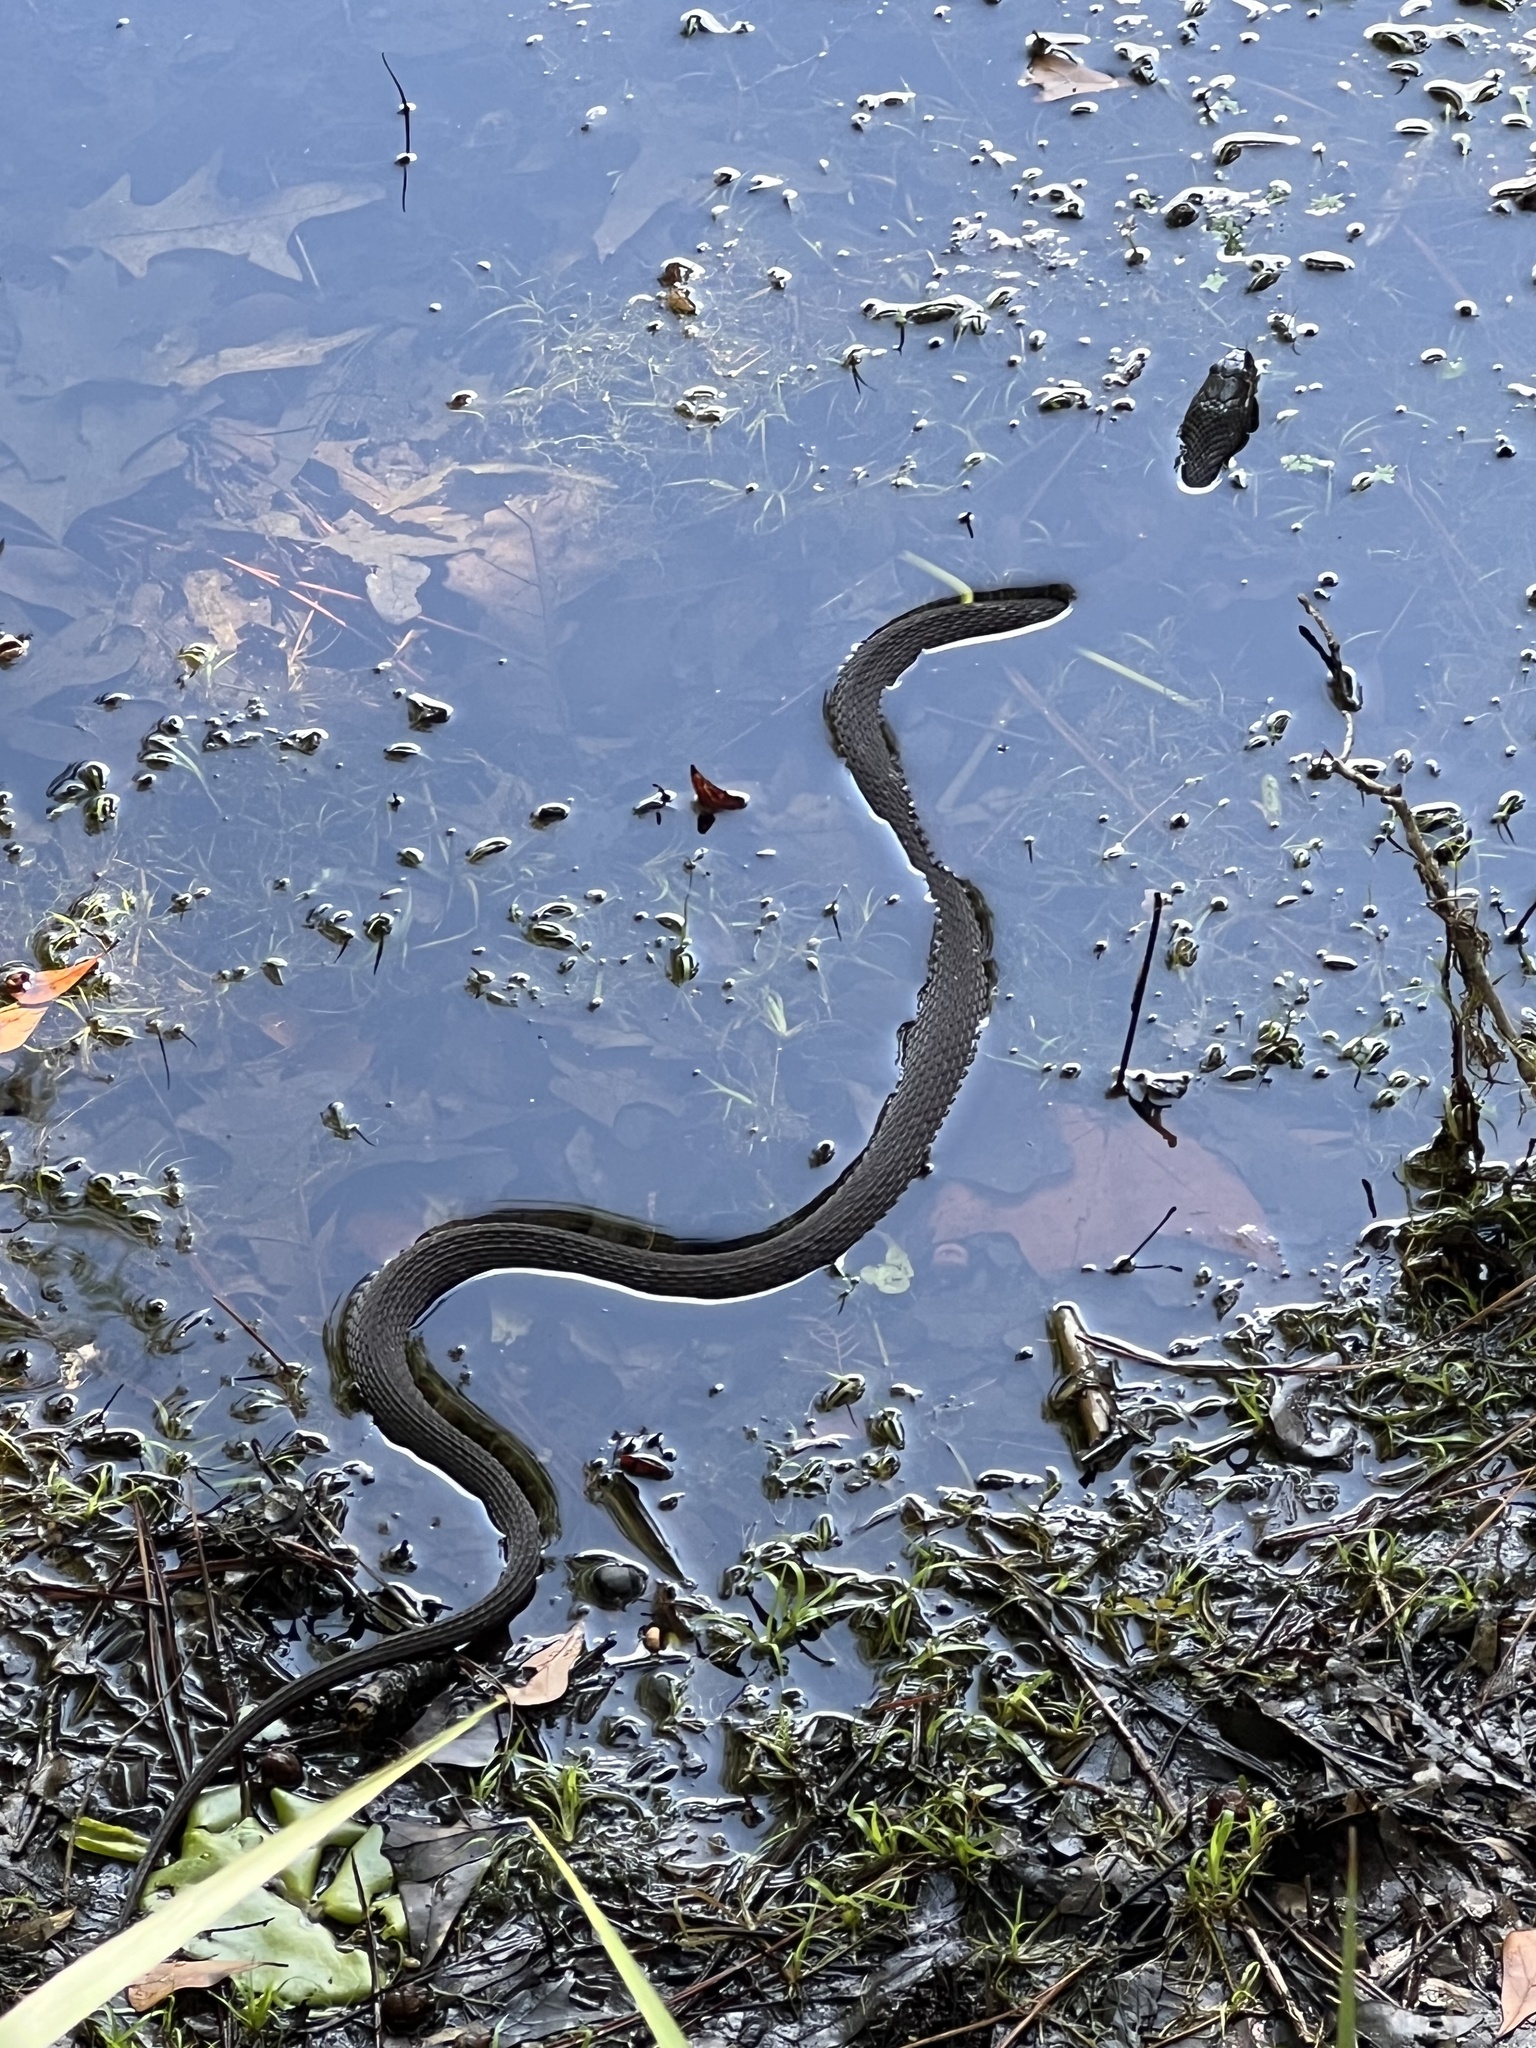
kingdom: Animalia
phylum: Chordata
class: Squamata
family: Colubridae
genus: Nerodia
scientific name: Nerodia sipedon
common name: Northern water snake
